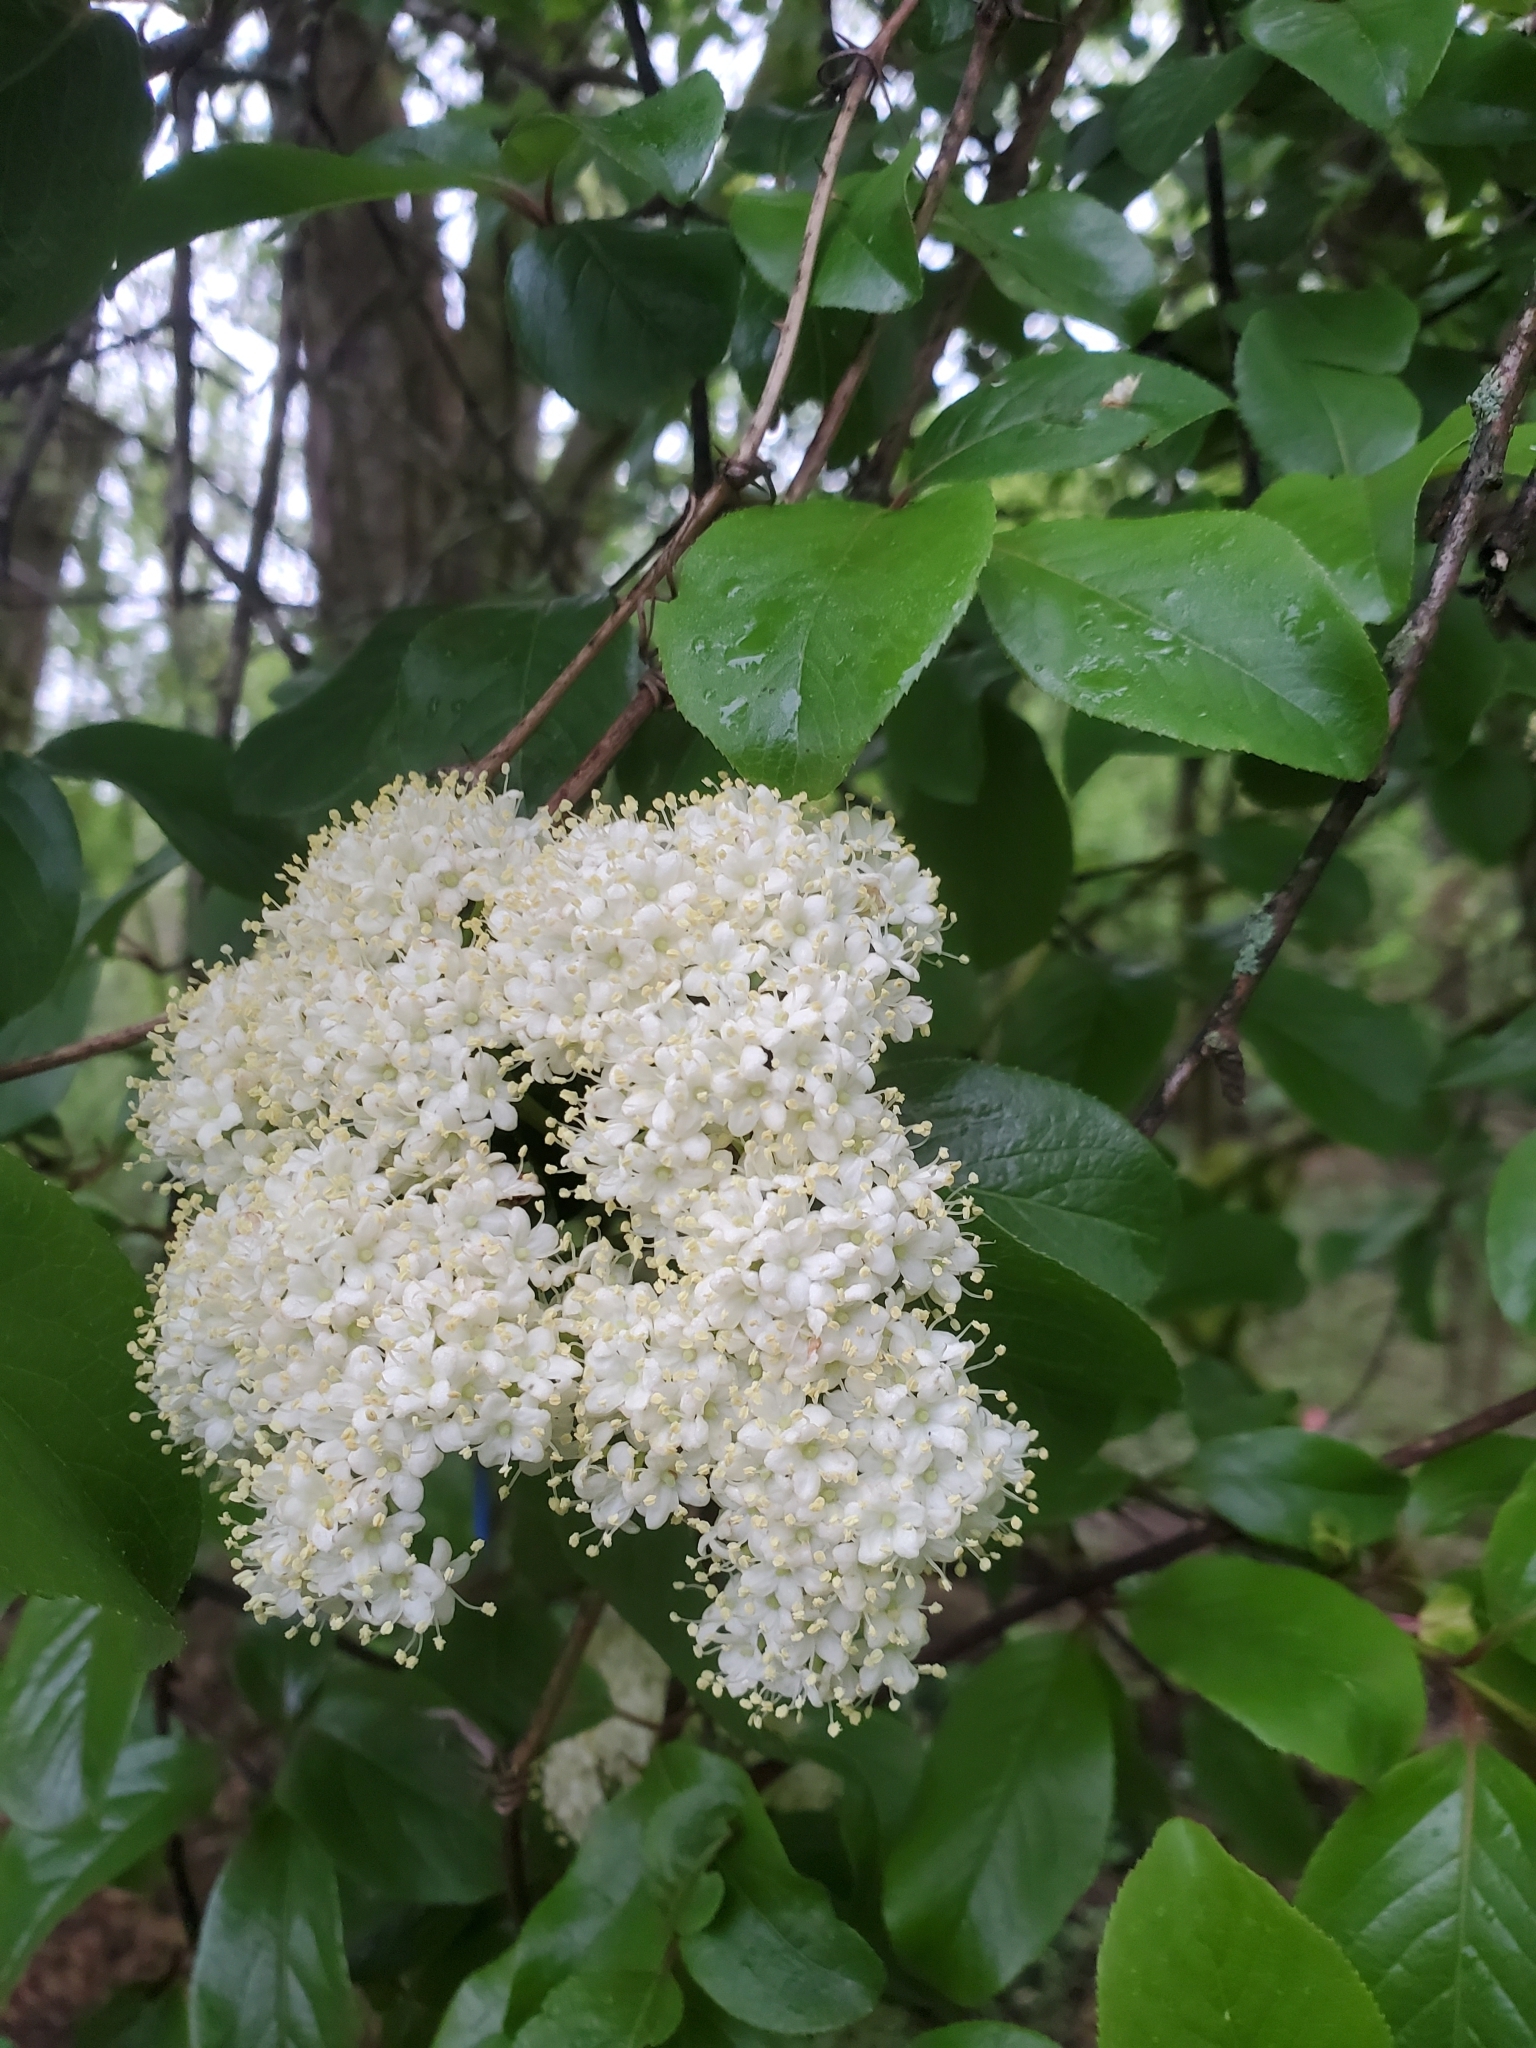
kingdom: Plantae
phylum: Tracheophyta
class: Magnoliopsida
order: Dipsacales
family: Viburnaceae
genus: Viburnum
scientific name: Viburnum rufidulum
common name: Blue haw
